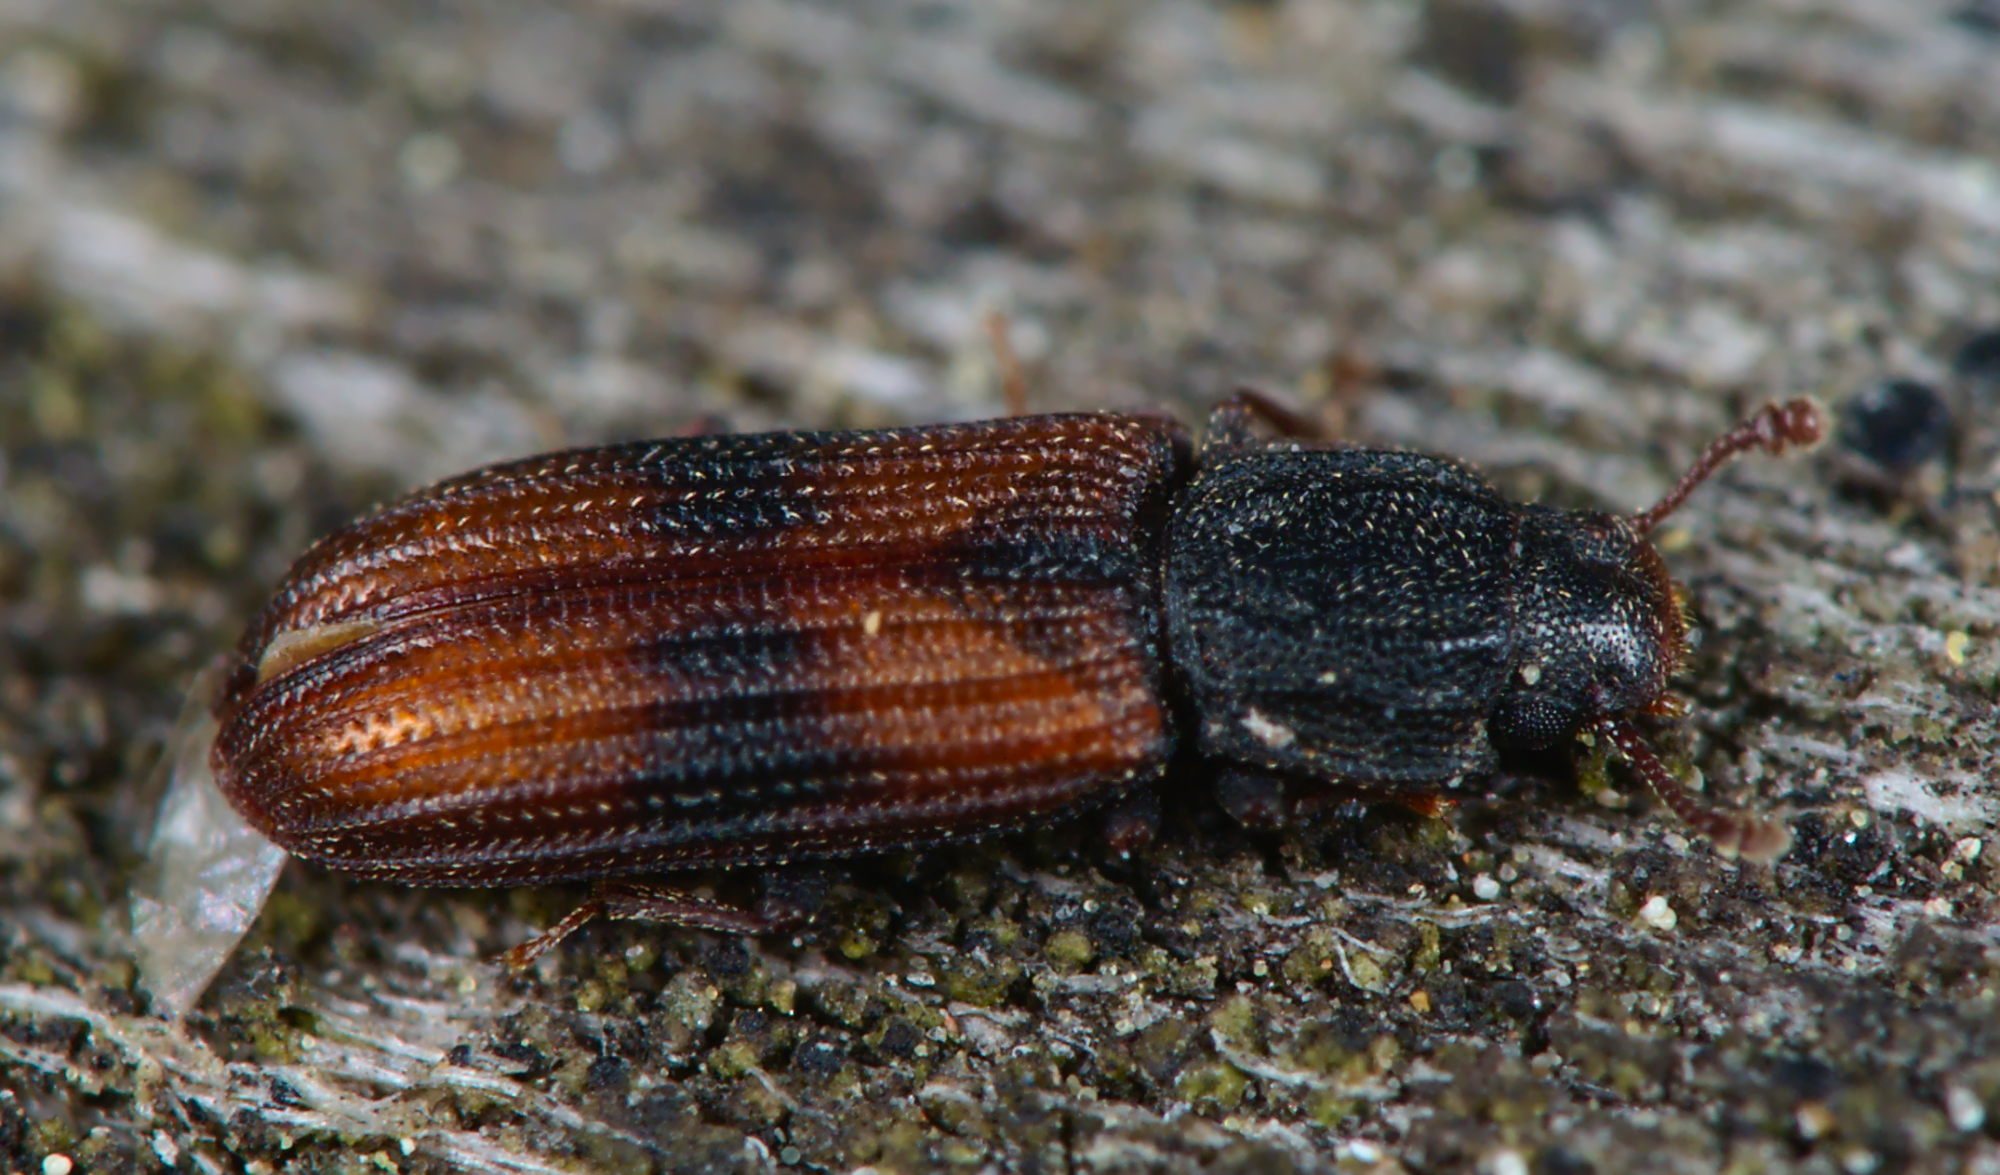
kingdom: Animalia
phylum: Arthropoda
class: Insecta
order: Coleoptera
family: Zopheridae
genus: Bitoma
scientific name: Bitoma crenata
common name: Bark beetle
